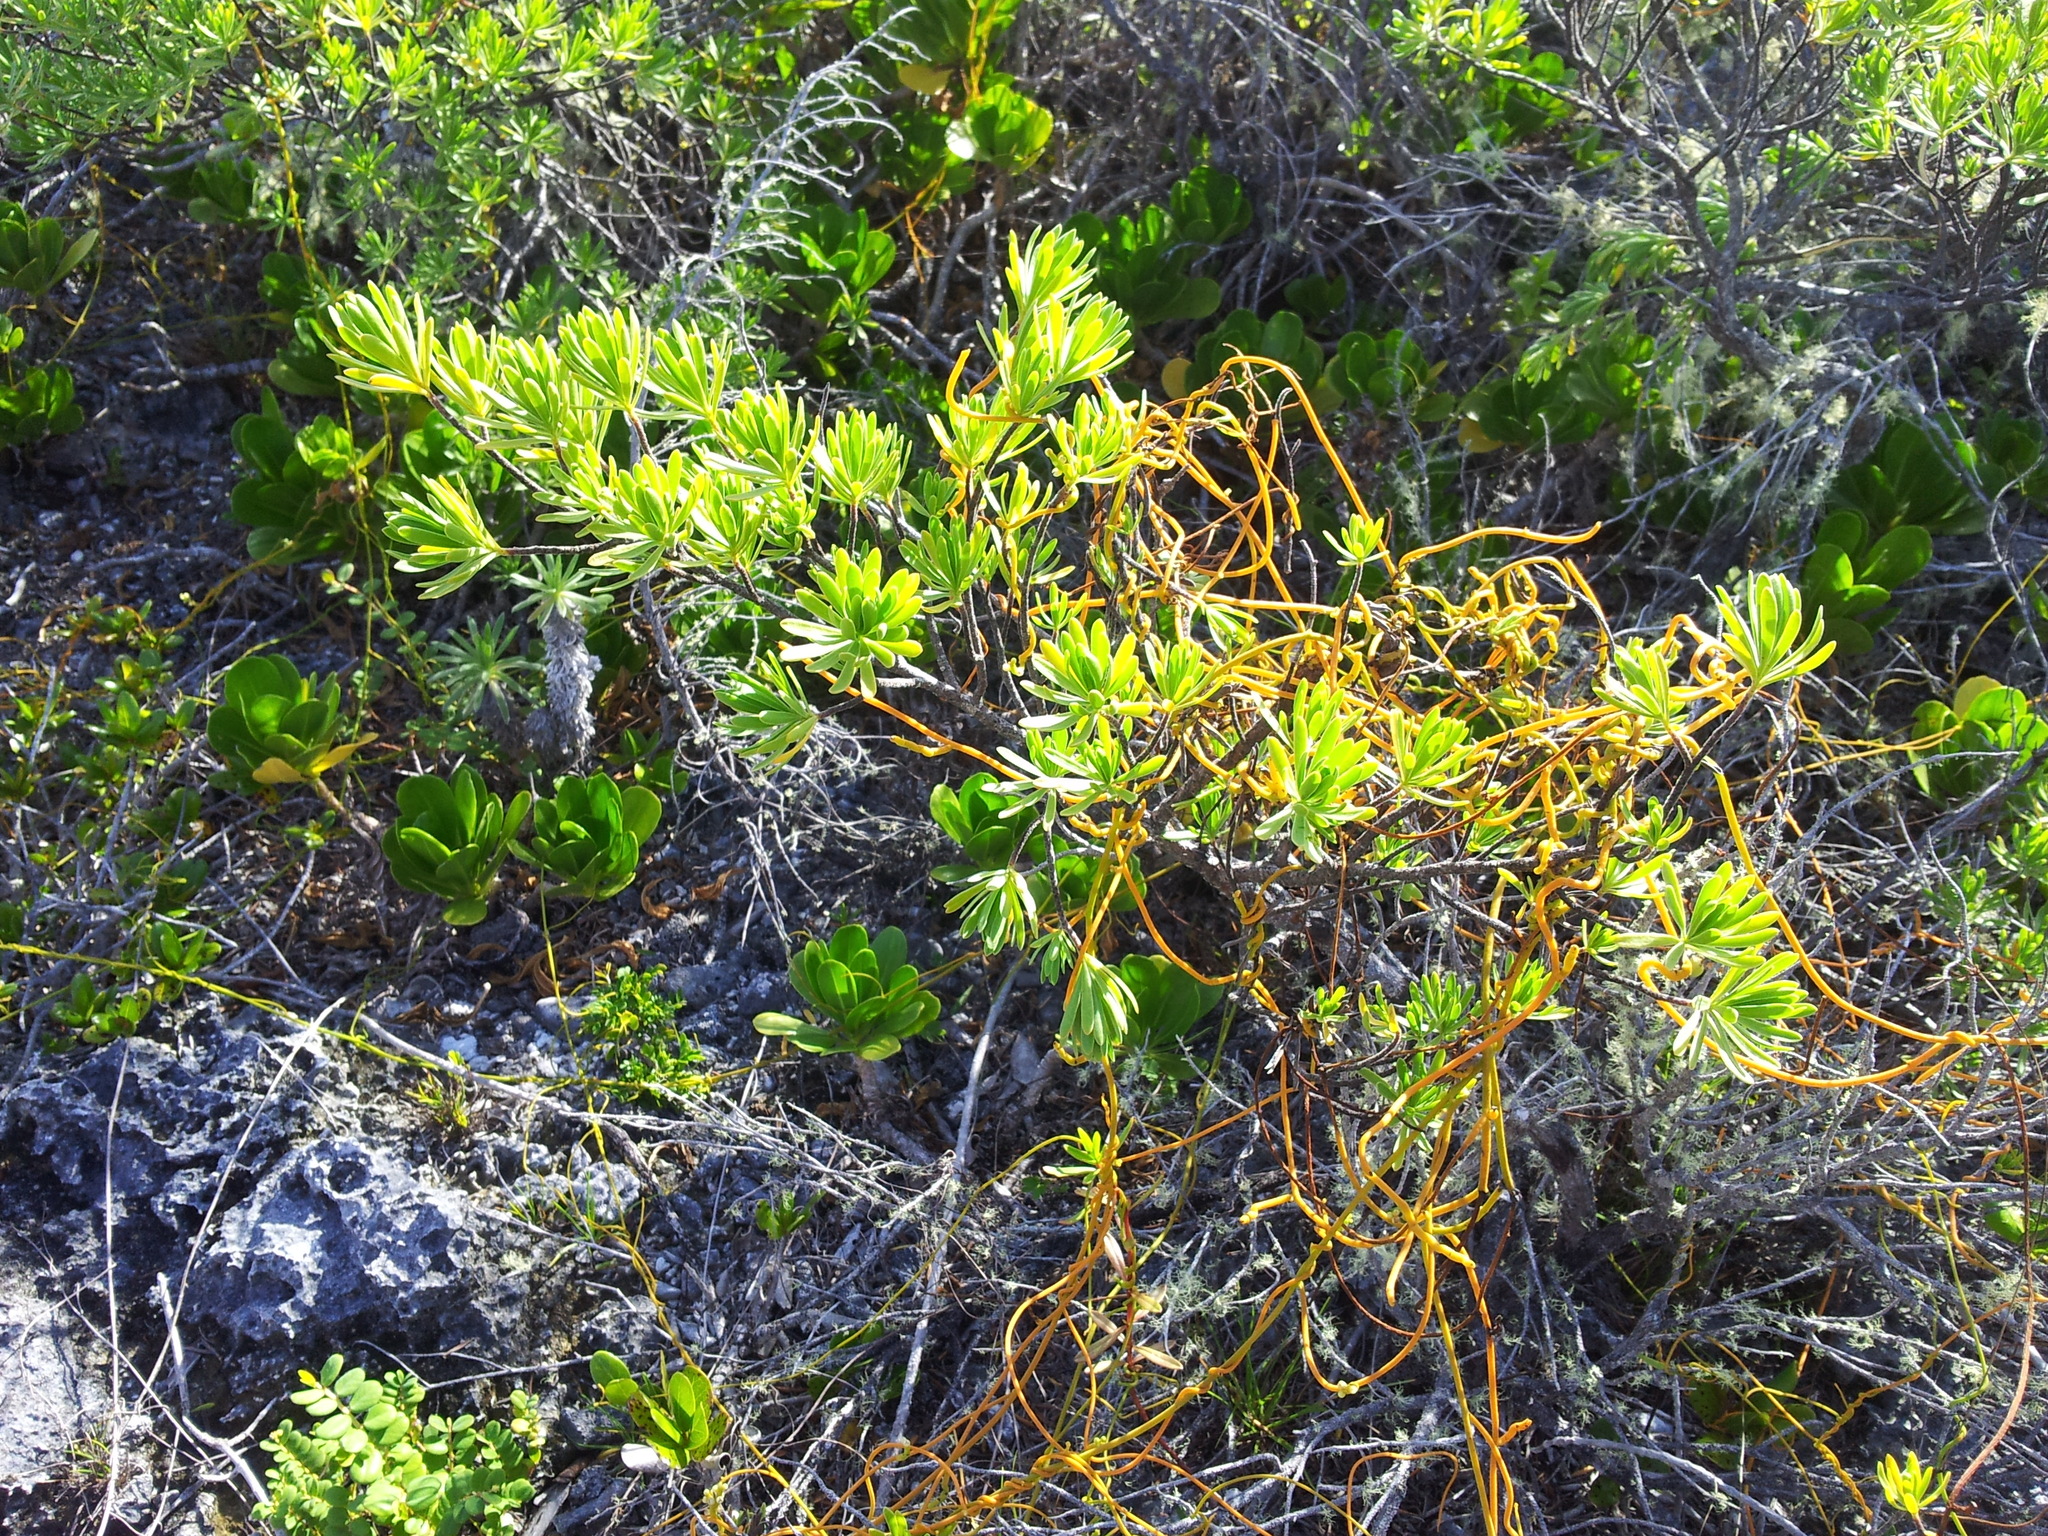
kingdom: Plantae
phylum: Tracheophyta
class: Magnoliopsida
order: Fabales
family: Surianaceae
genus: Suriana
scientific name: Suriana maritima
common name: Bay-cedar
